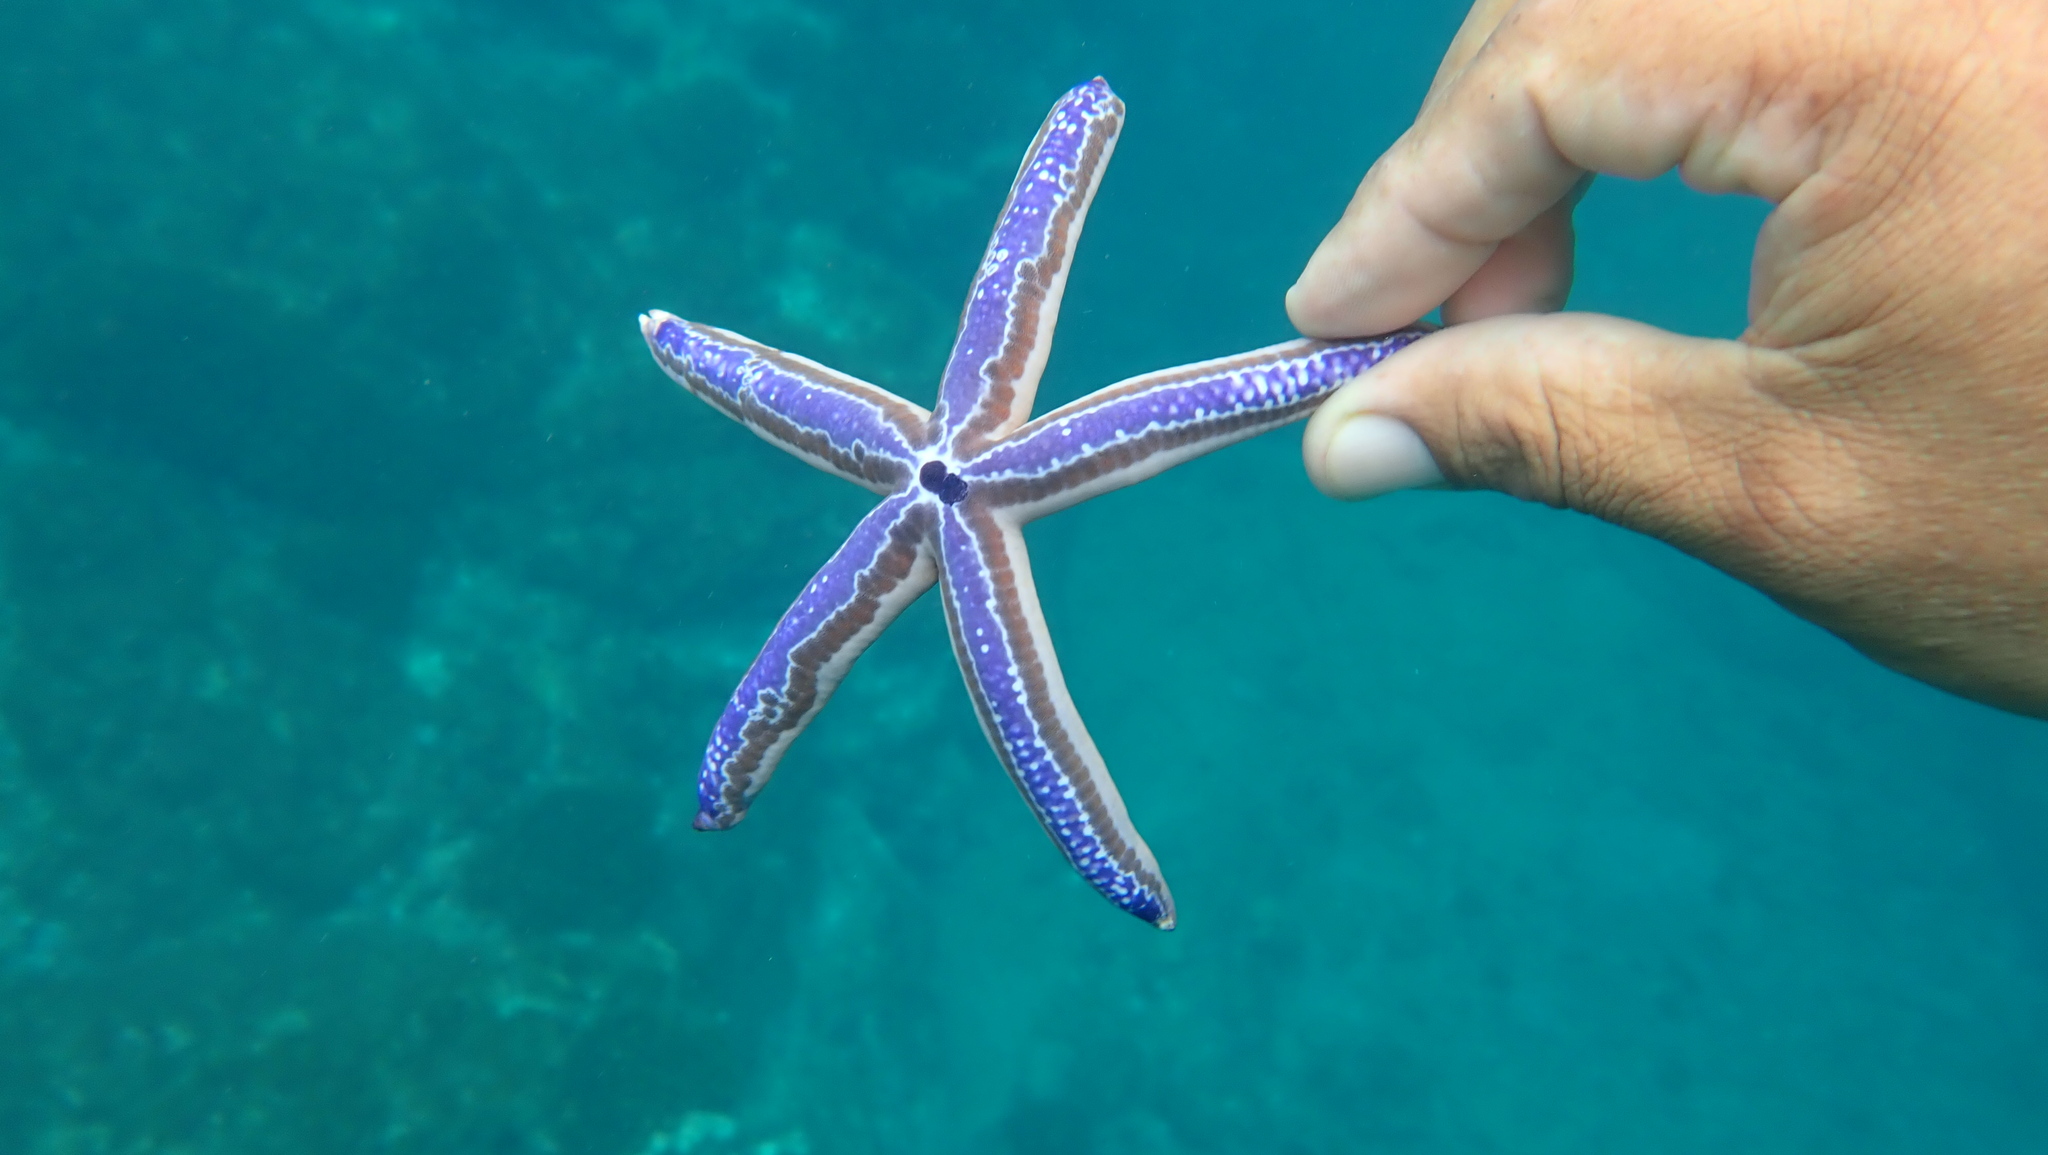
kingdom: Animalia
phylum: Echinodermata
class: Asteroidea
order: Valvatida
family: Ophidiasteridae
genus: Phataria
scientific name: Phataria unifascialis
